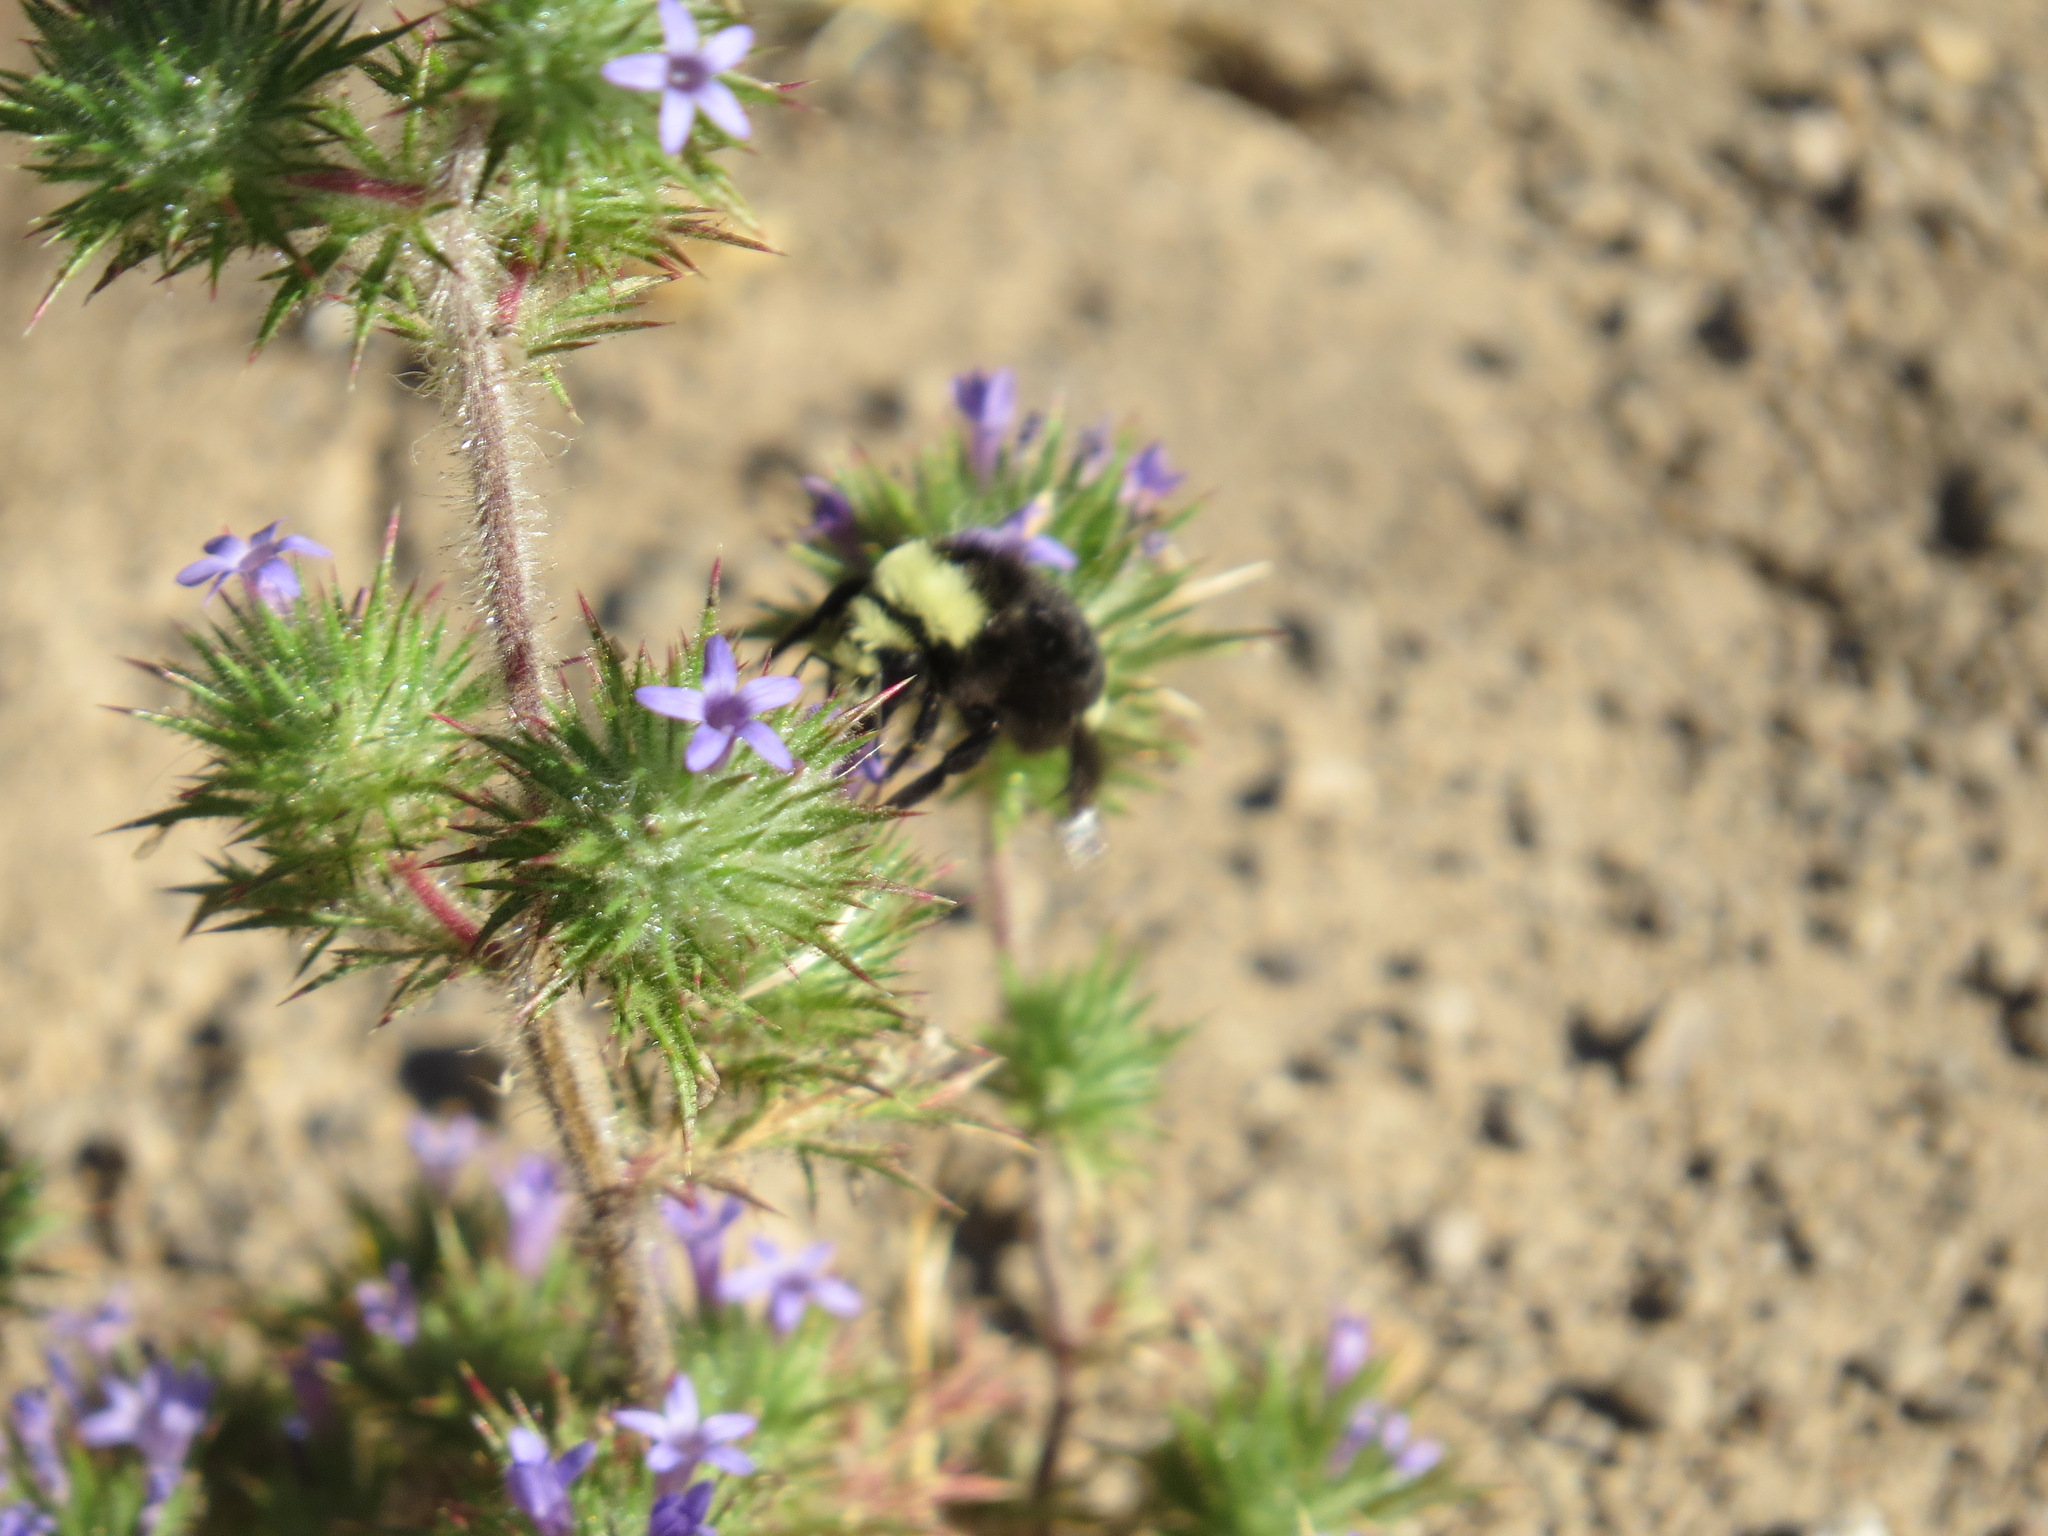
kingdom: Plantae
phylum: Tracheophyta
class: Magnoliopsida
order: Ericales
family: Polemoniaceae
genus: Navarretia
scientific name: Navarretia squarrosa
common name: Skunkweed
